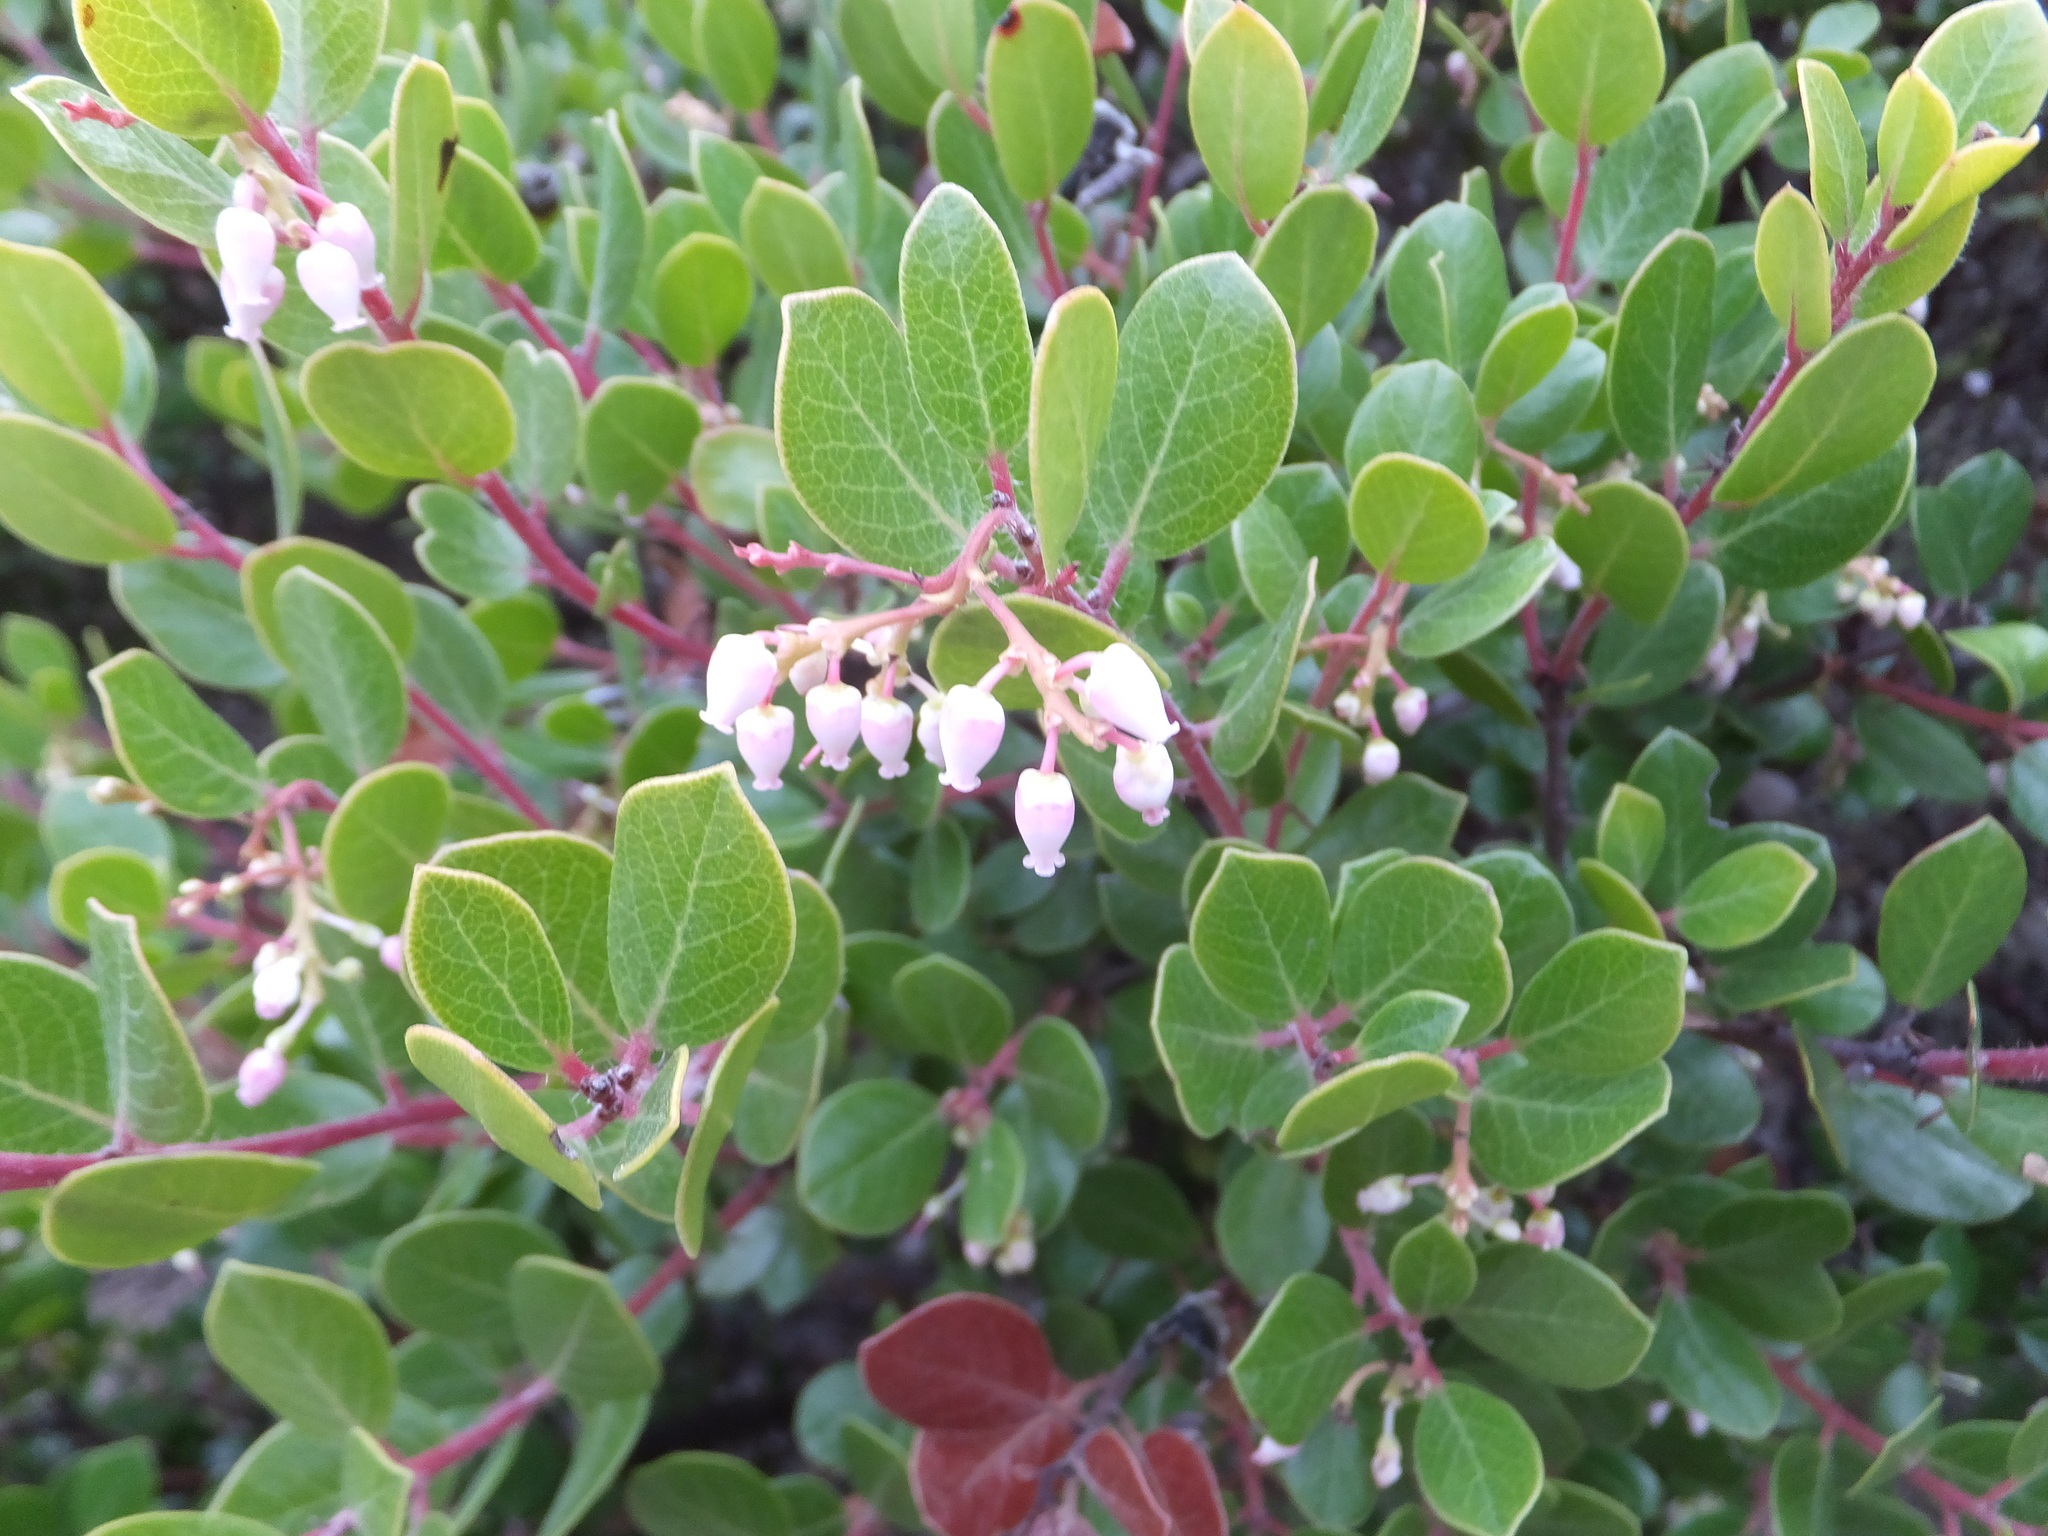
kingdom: Plantae
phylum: Tracheophyta
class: Magnoliopsida
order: Ericales
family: Ericaceae
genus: Arctostaphylos
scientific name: Arctostaphylos nummularia
